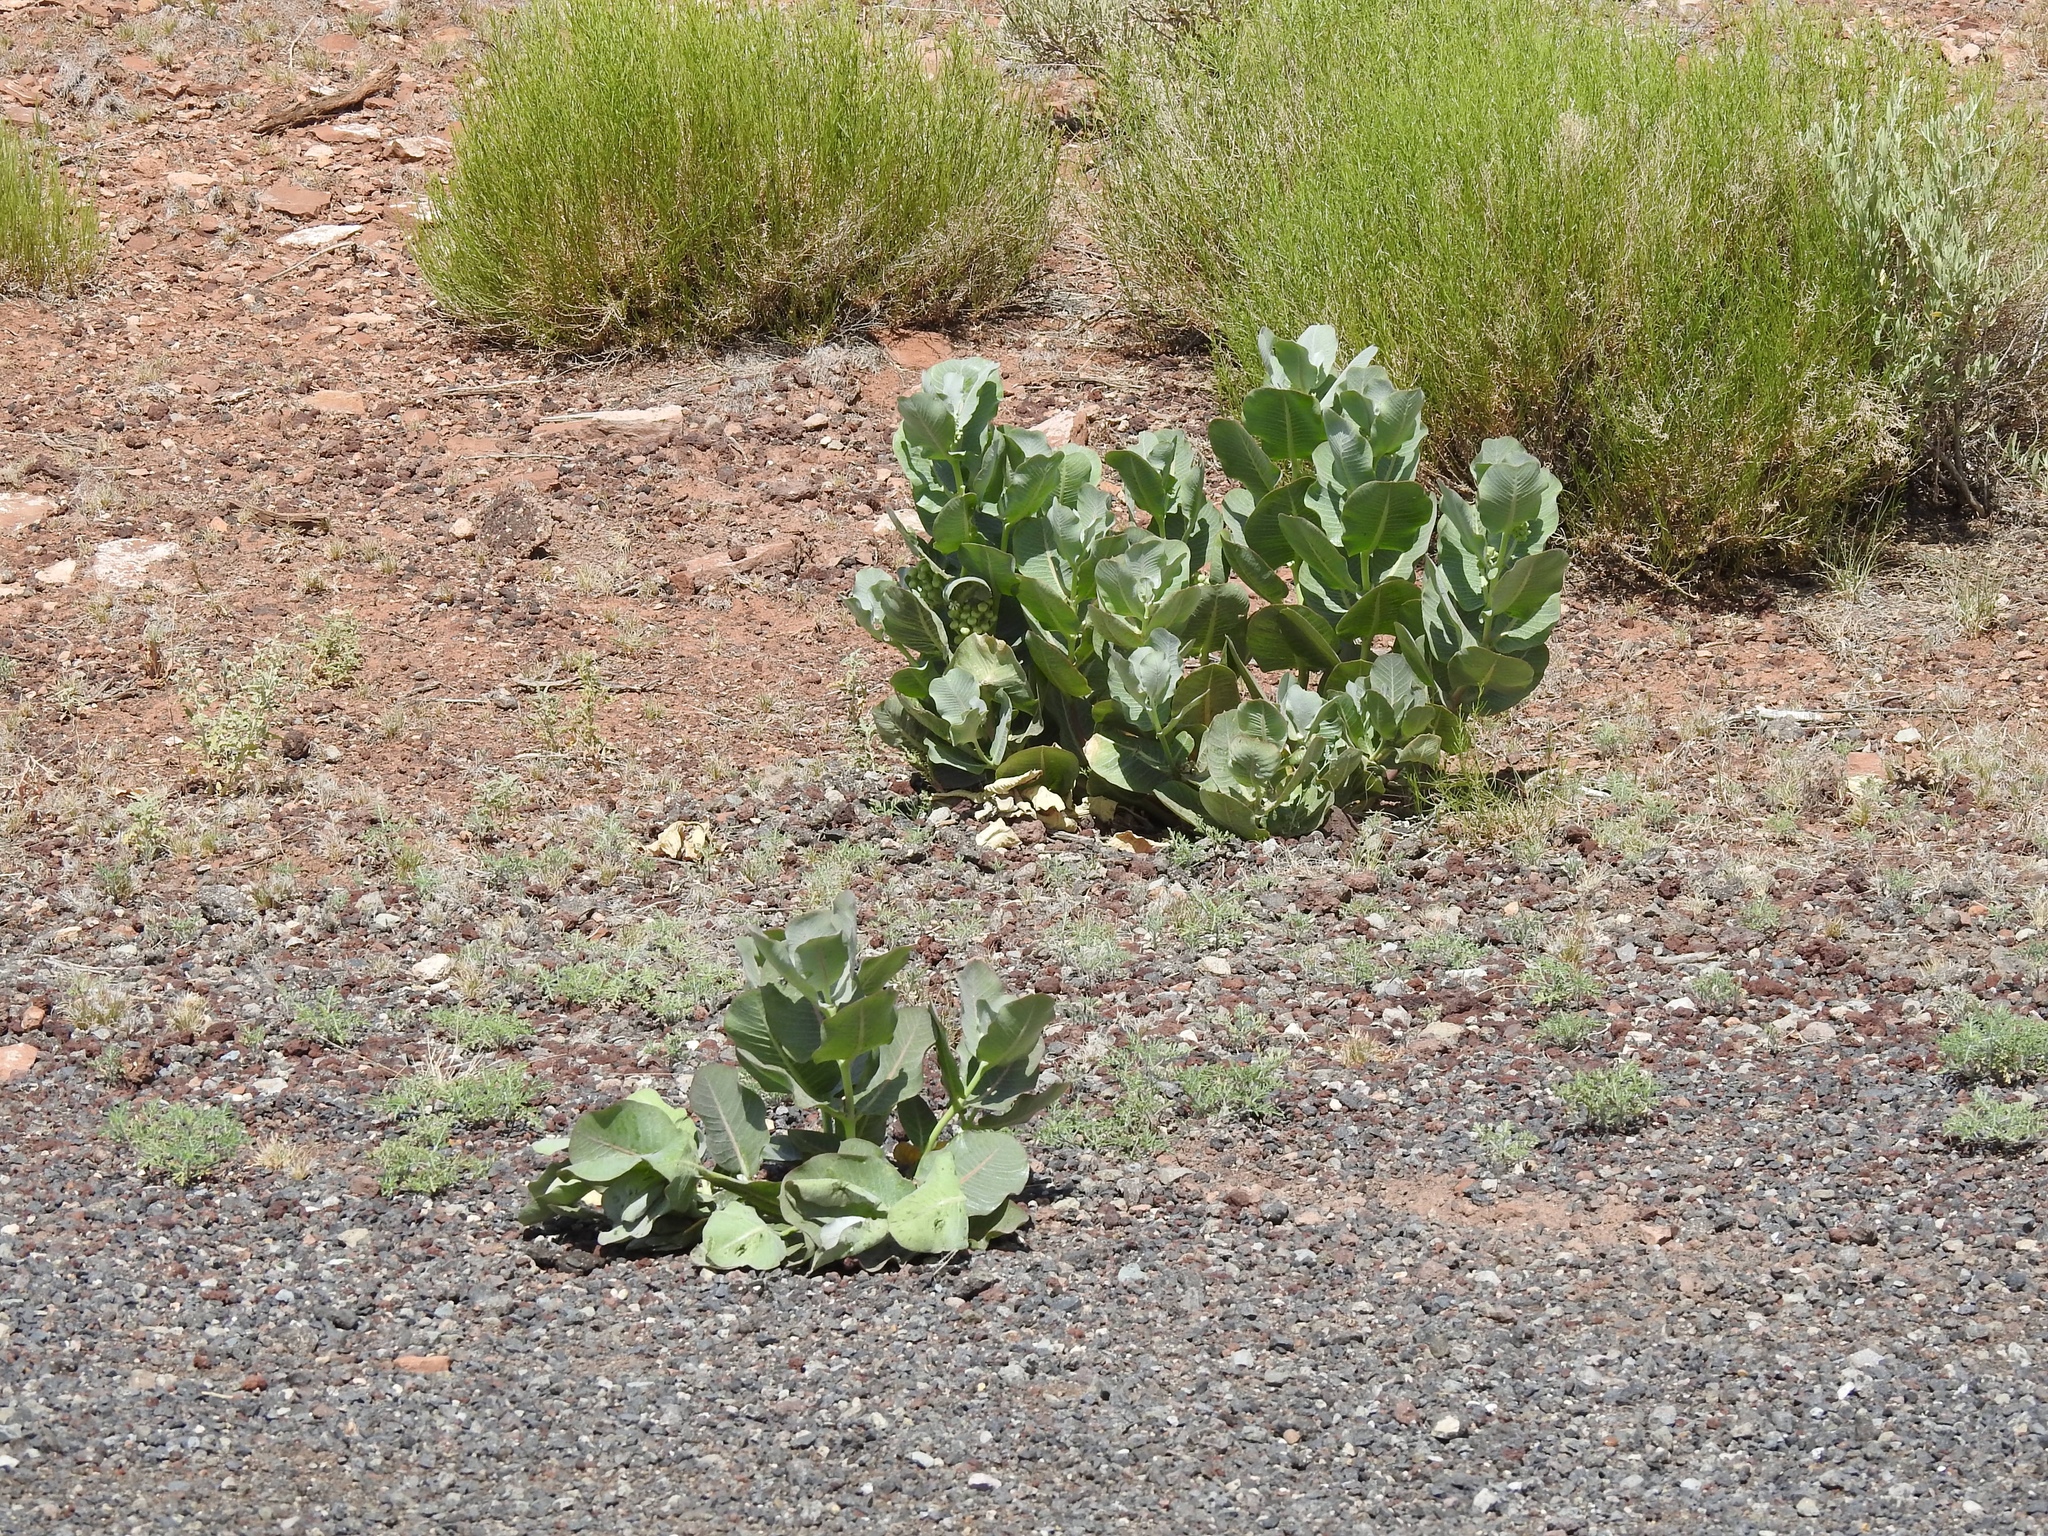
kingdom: Plantae
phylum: Tracheophyta
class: Magnoliopsida
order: Gentianales
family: Apocynaceae
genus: Asclepias
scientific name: Asclepias latifolia
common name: Broadleaf milkweed
